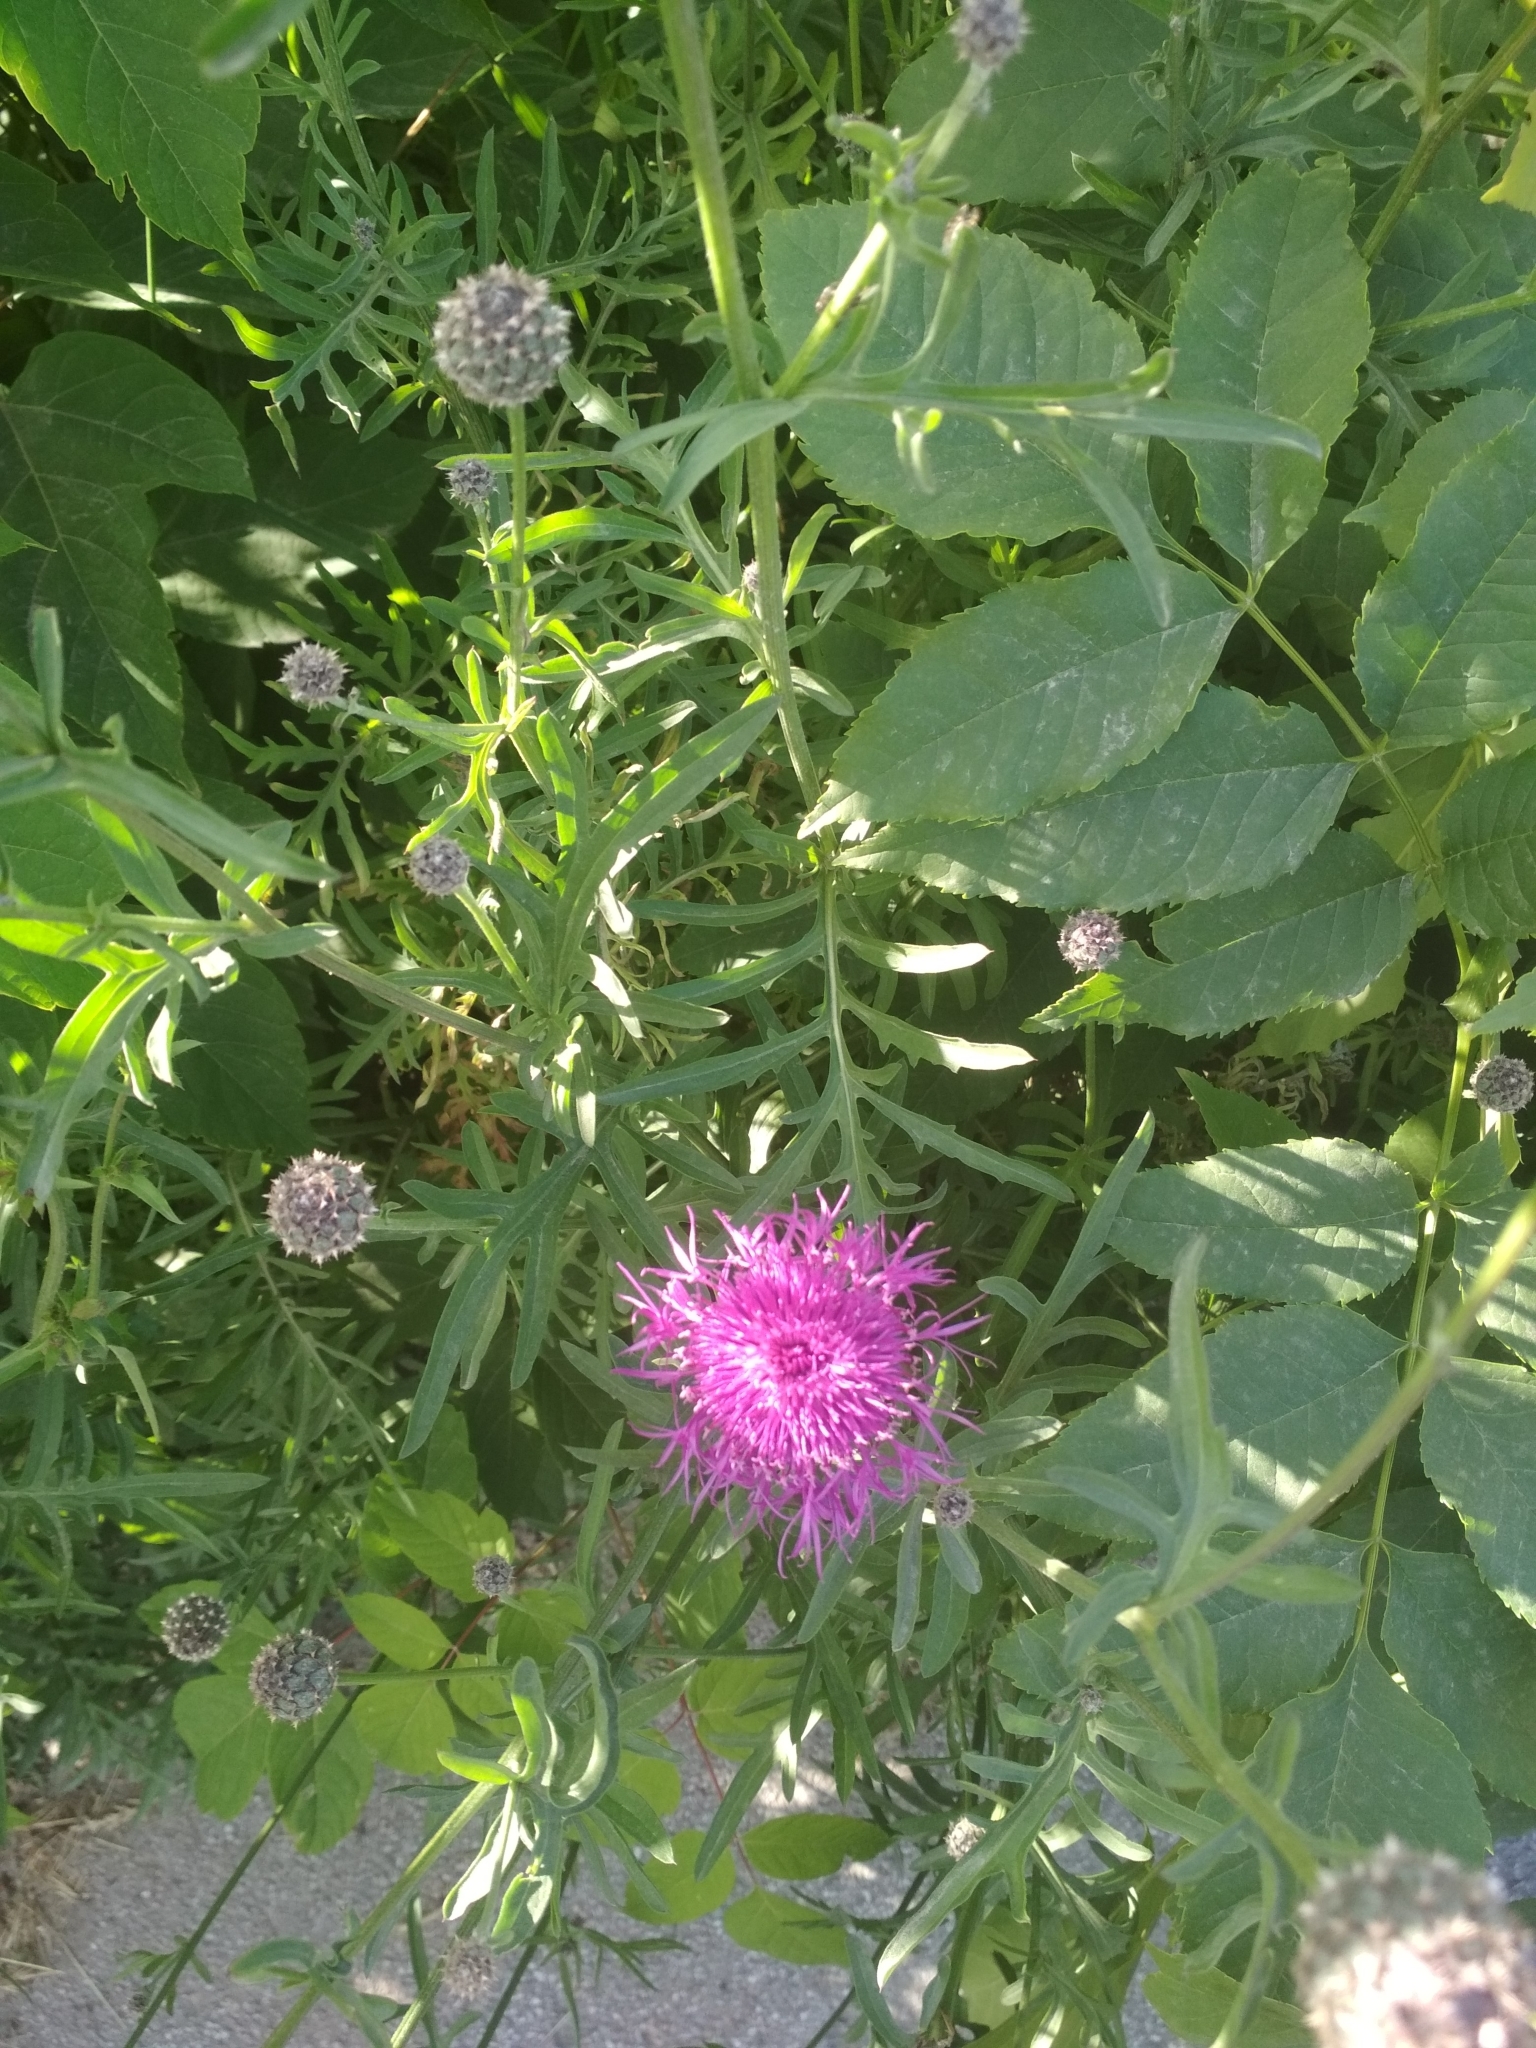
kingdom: Plantae
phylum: Tracheophyta
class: Magnoliopsida
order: Asterales
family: Asteraceae
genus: Centaurea
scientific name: Centaurea scabiosa
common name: Greater knapweed
